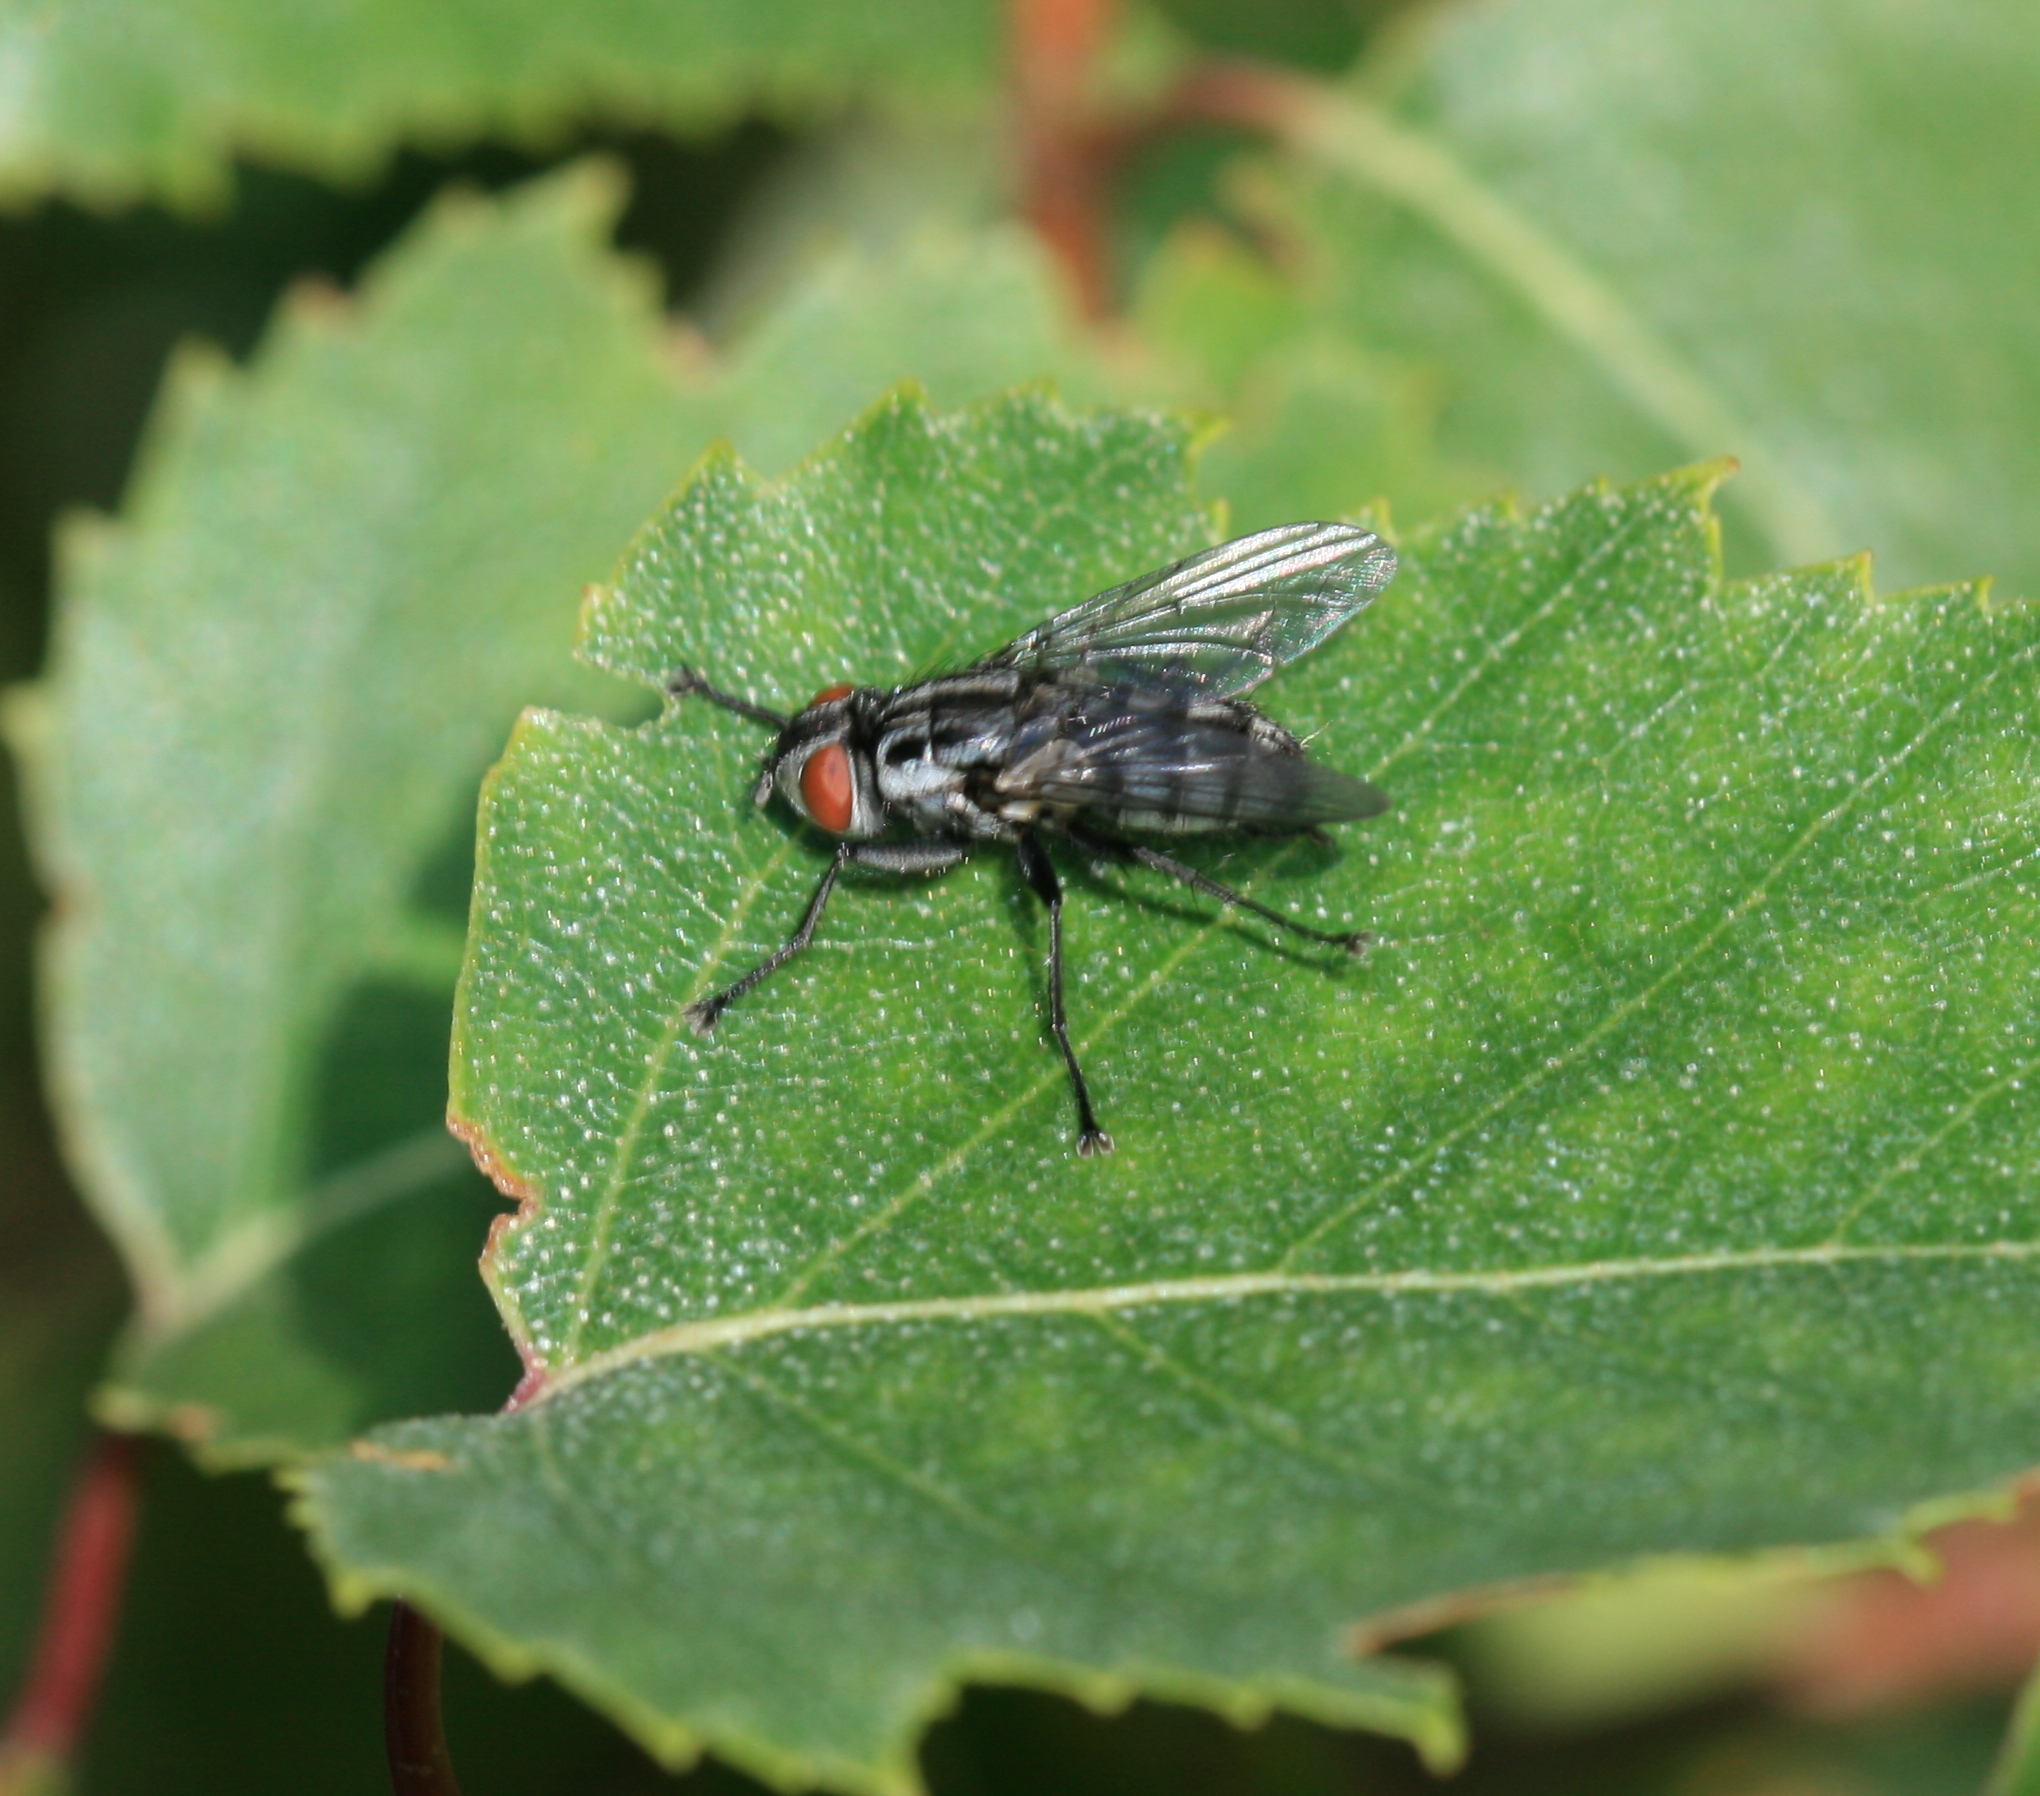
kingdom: Animalia
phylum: Arthropoda
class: Insecta
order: Diptera
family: Sarcophagidae
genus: Macronychia
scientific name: Macronychia polyodon
